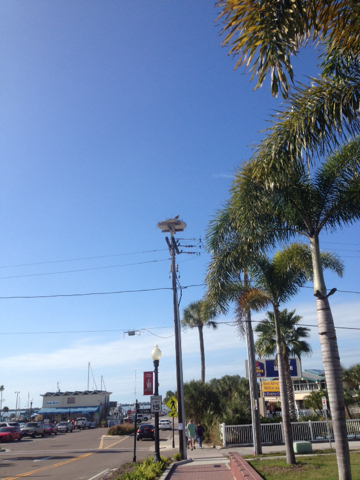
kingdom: Animalia
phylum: Chordata
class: Aves
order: Accipitriformes
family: Pandionidae
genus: Pandion
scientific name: Pandion haliaetus
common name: Osprey
